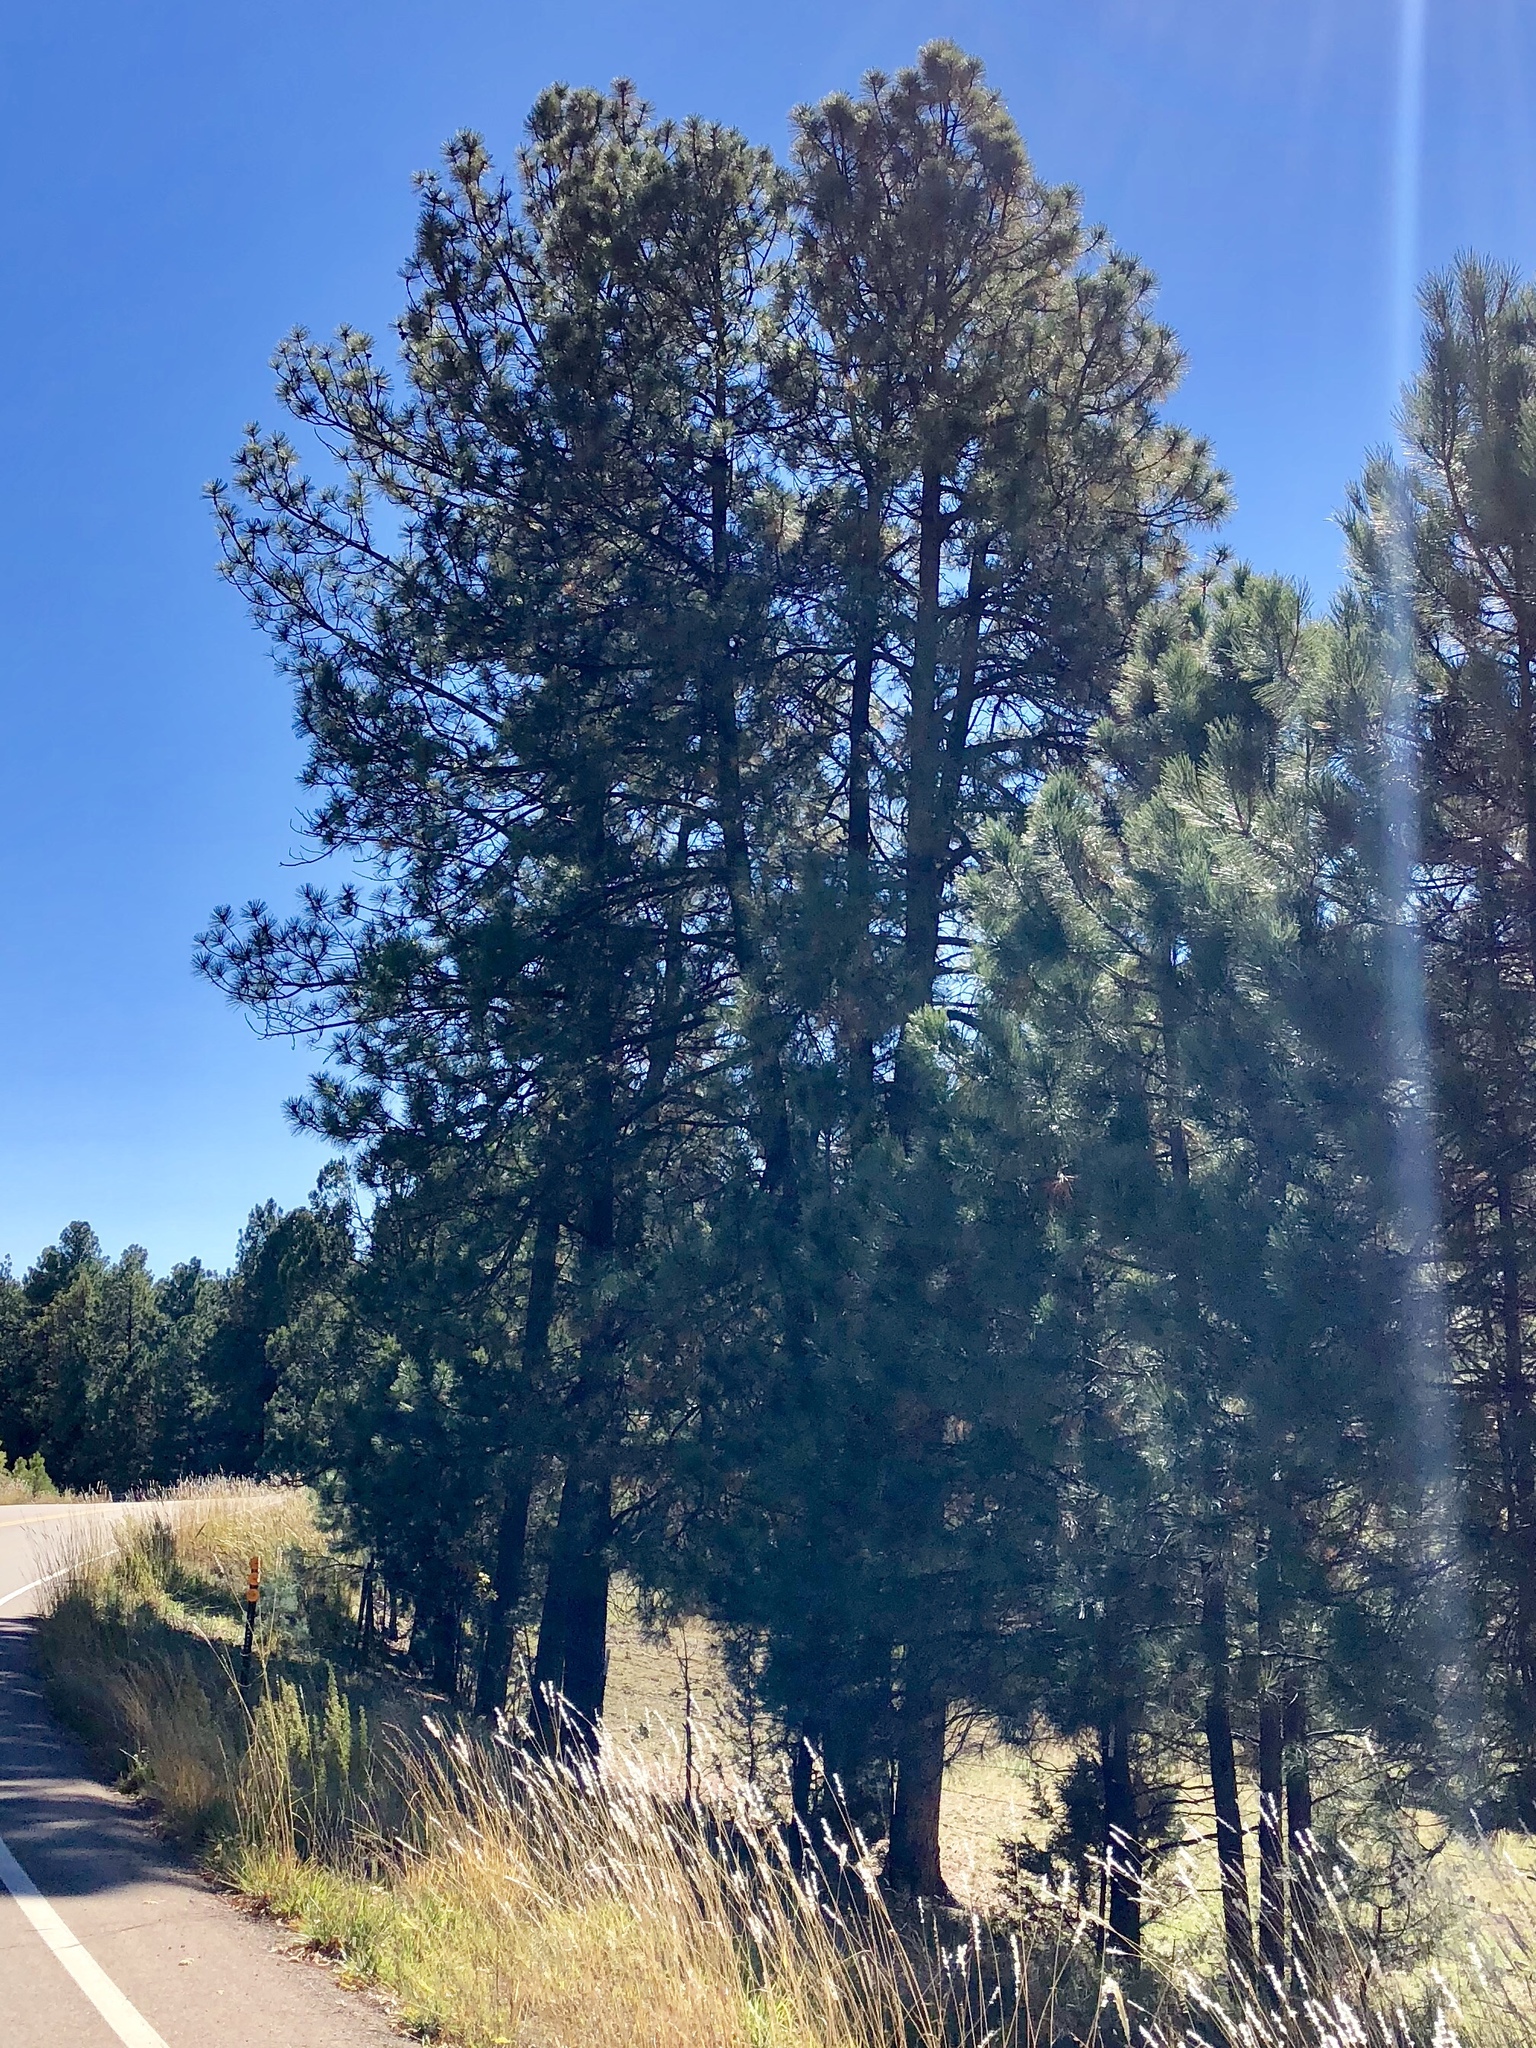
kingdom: Plantae
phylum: Tracheophyta
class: Pinopsida
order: Pinales
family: Pinaceae
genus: Pinus
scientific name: Pinus ponderosa
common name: Western yellow-pine
